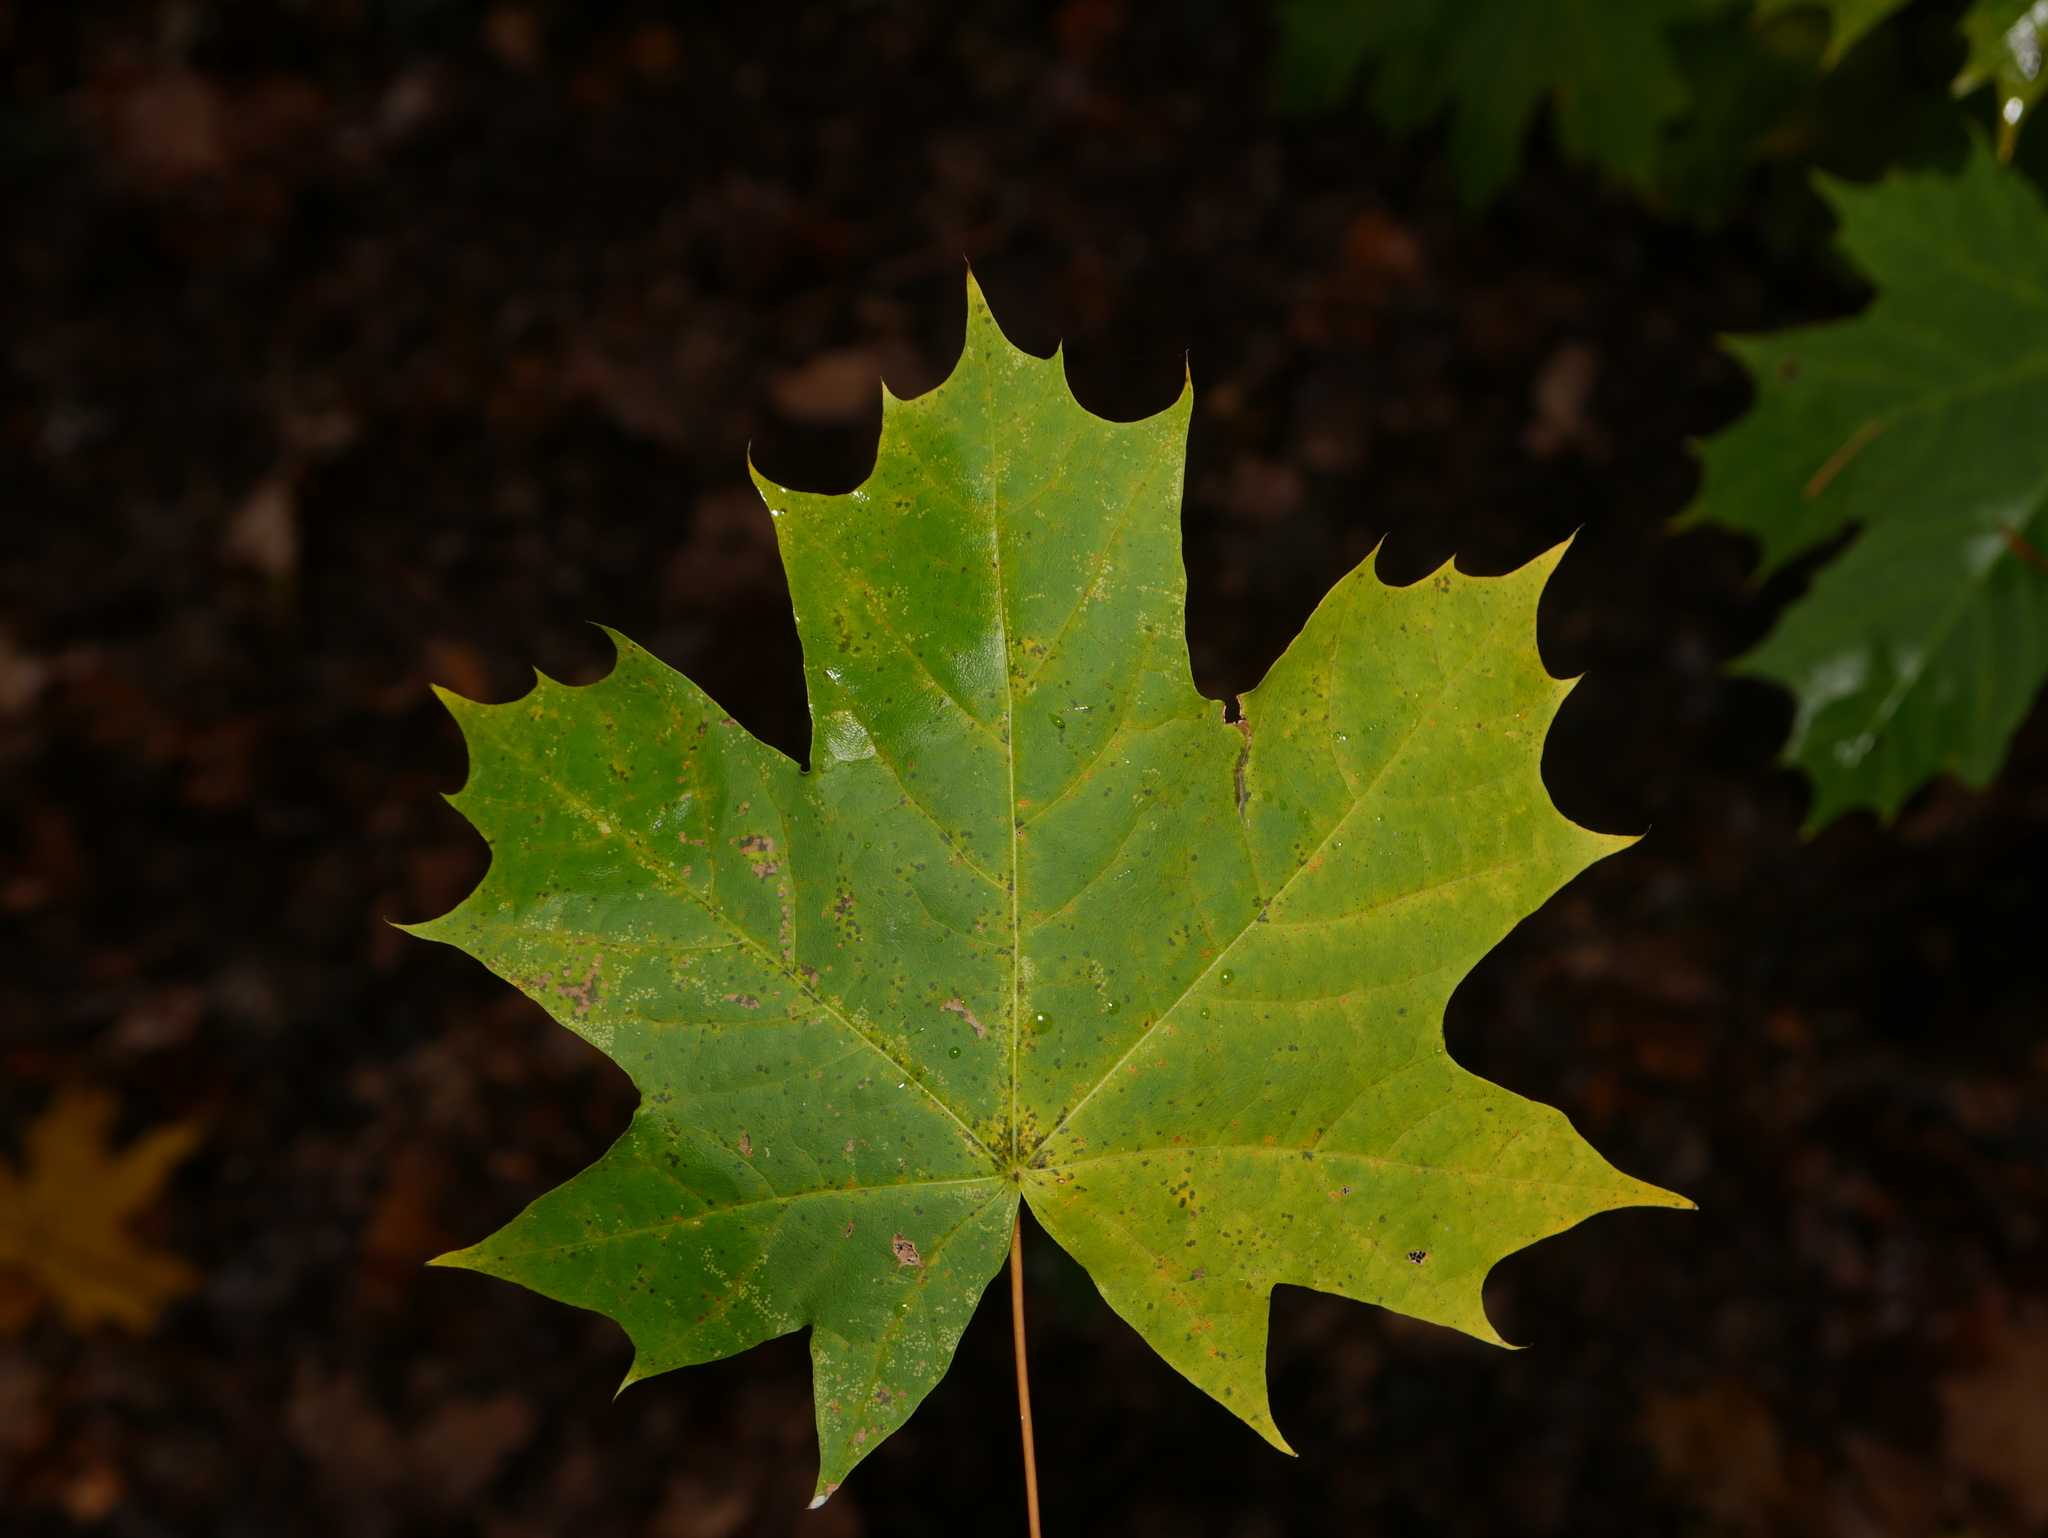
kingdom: Plantae
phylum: Tracheophyta
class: Magnoliopsida
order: Sapindales
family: Sapindaceae
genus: Acer
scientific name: Acer platanoides
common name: Norway maple
